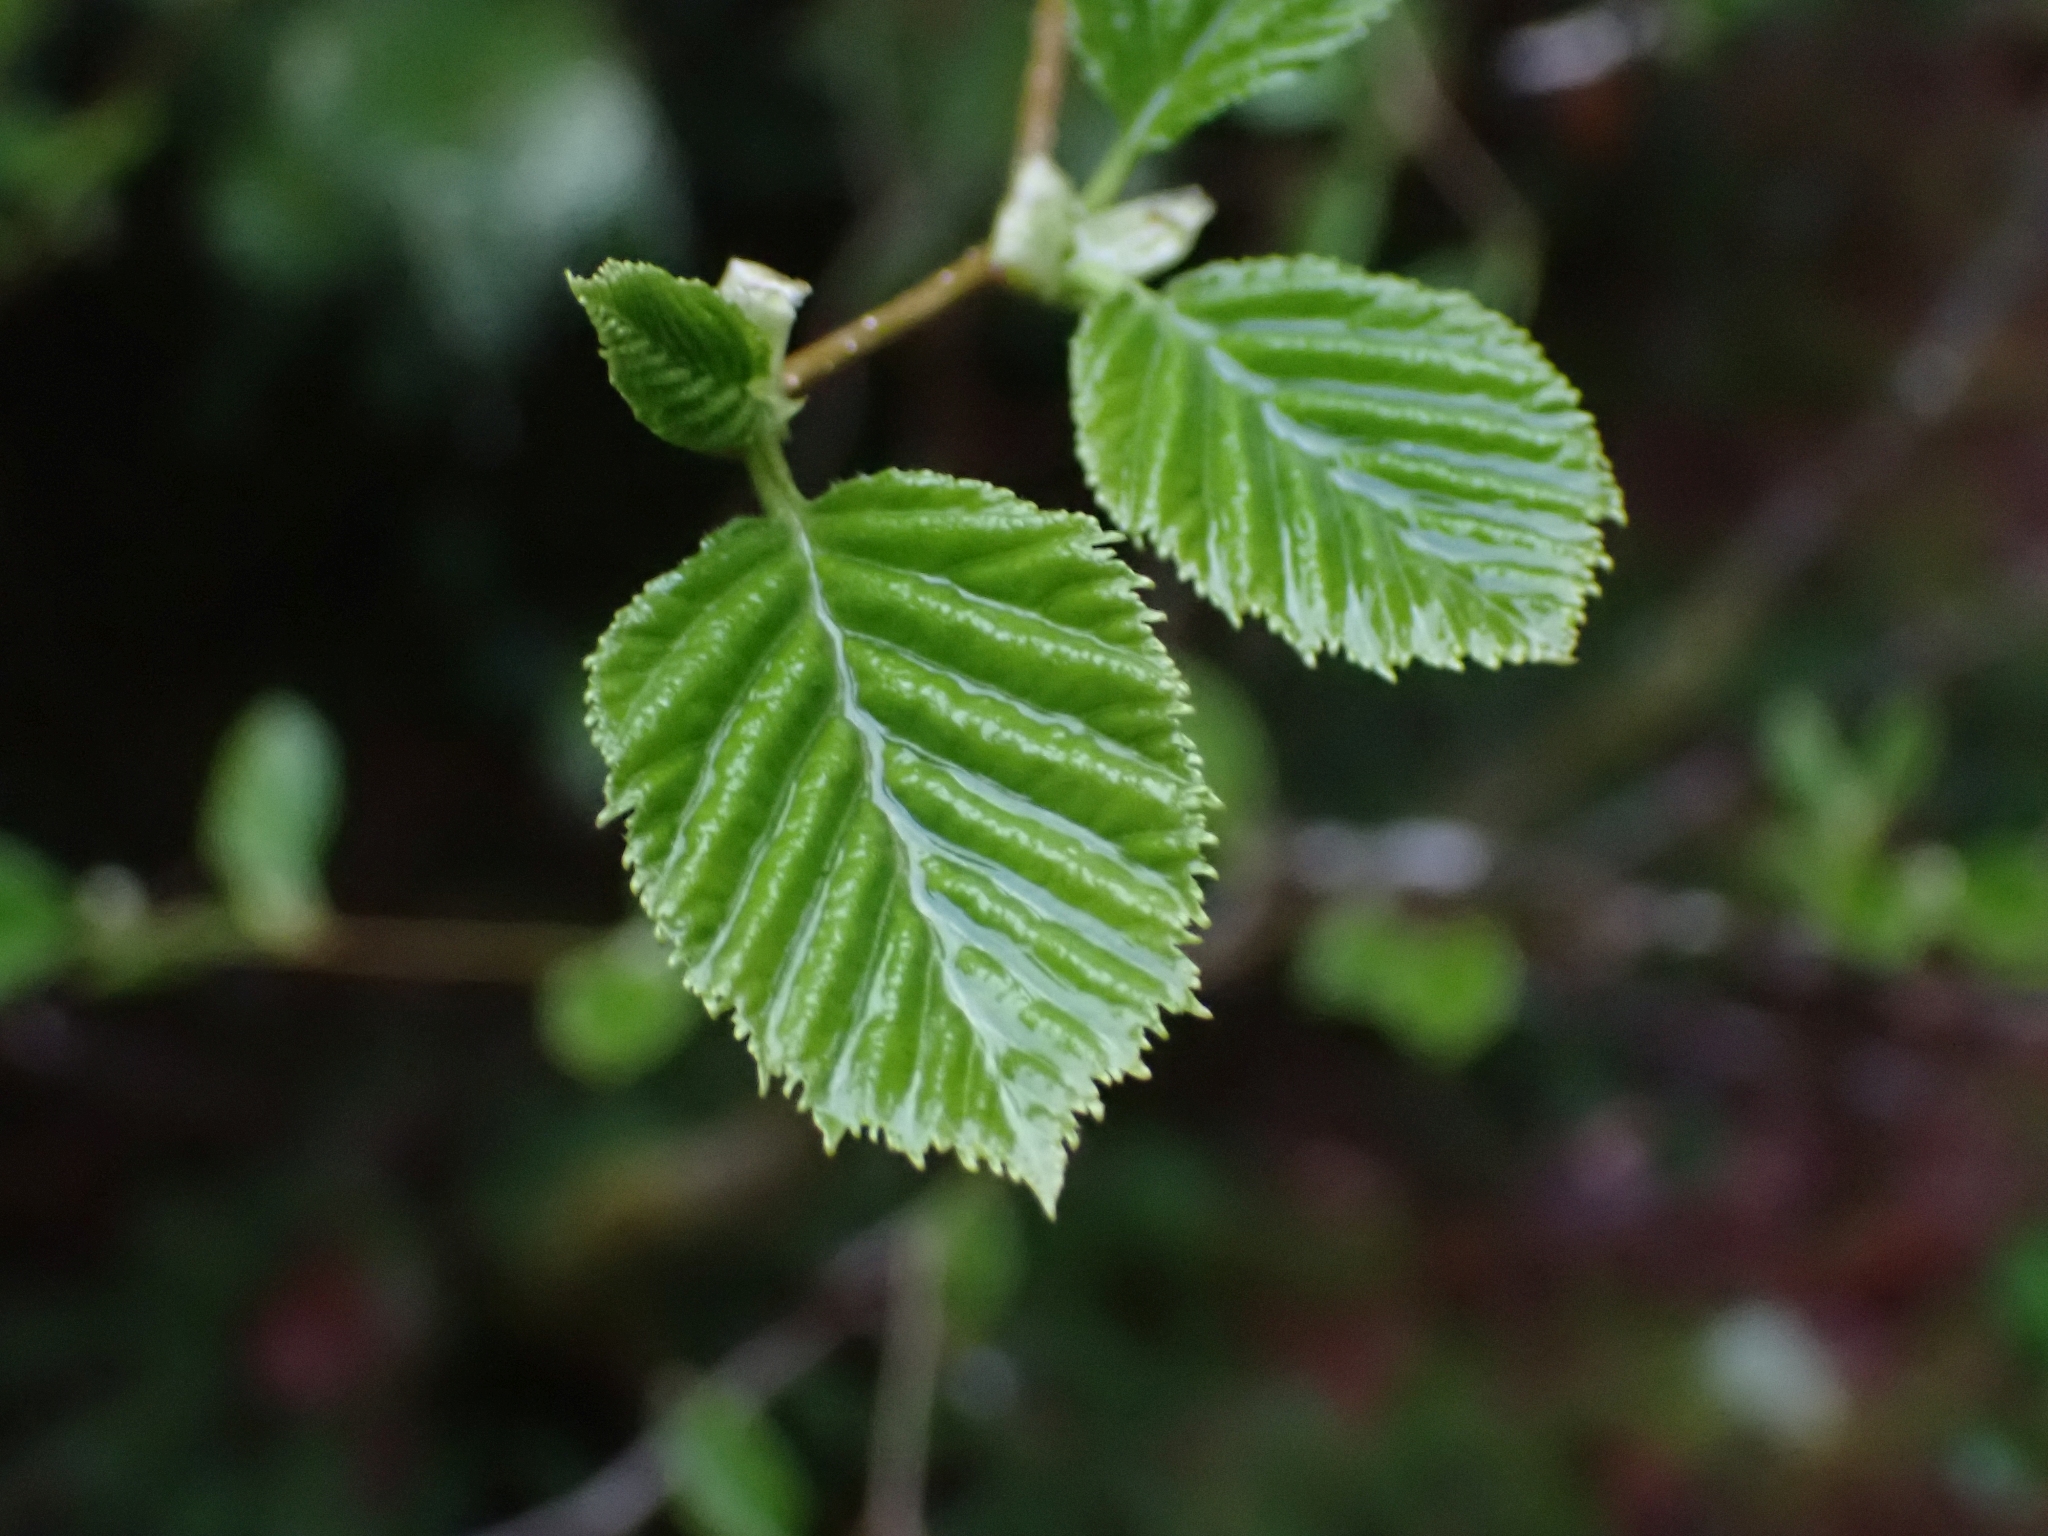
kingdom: Plantae
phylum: Tracheophyta
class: Magnoliopsida
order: Fagales
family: Betulaceae
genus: Alnus
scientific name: Alnus alnobetula
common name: Green alder
